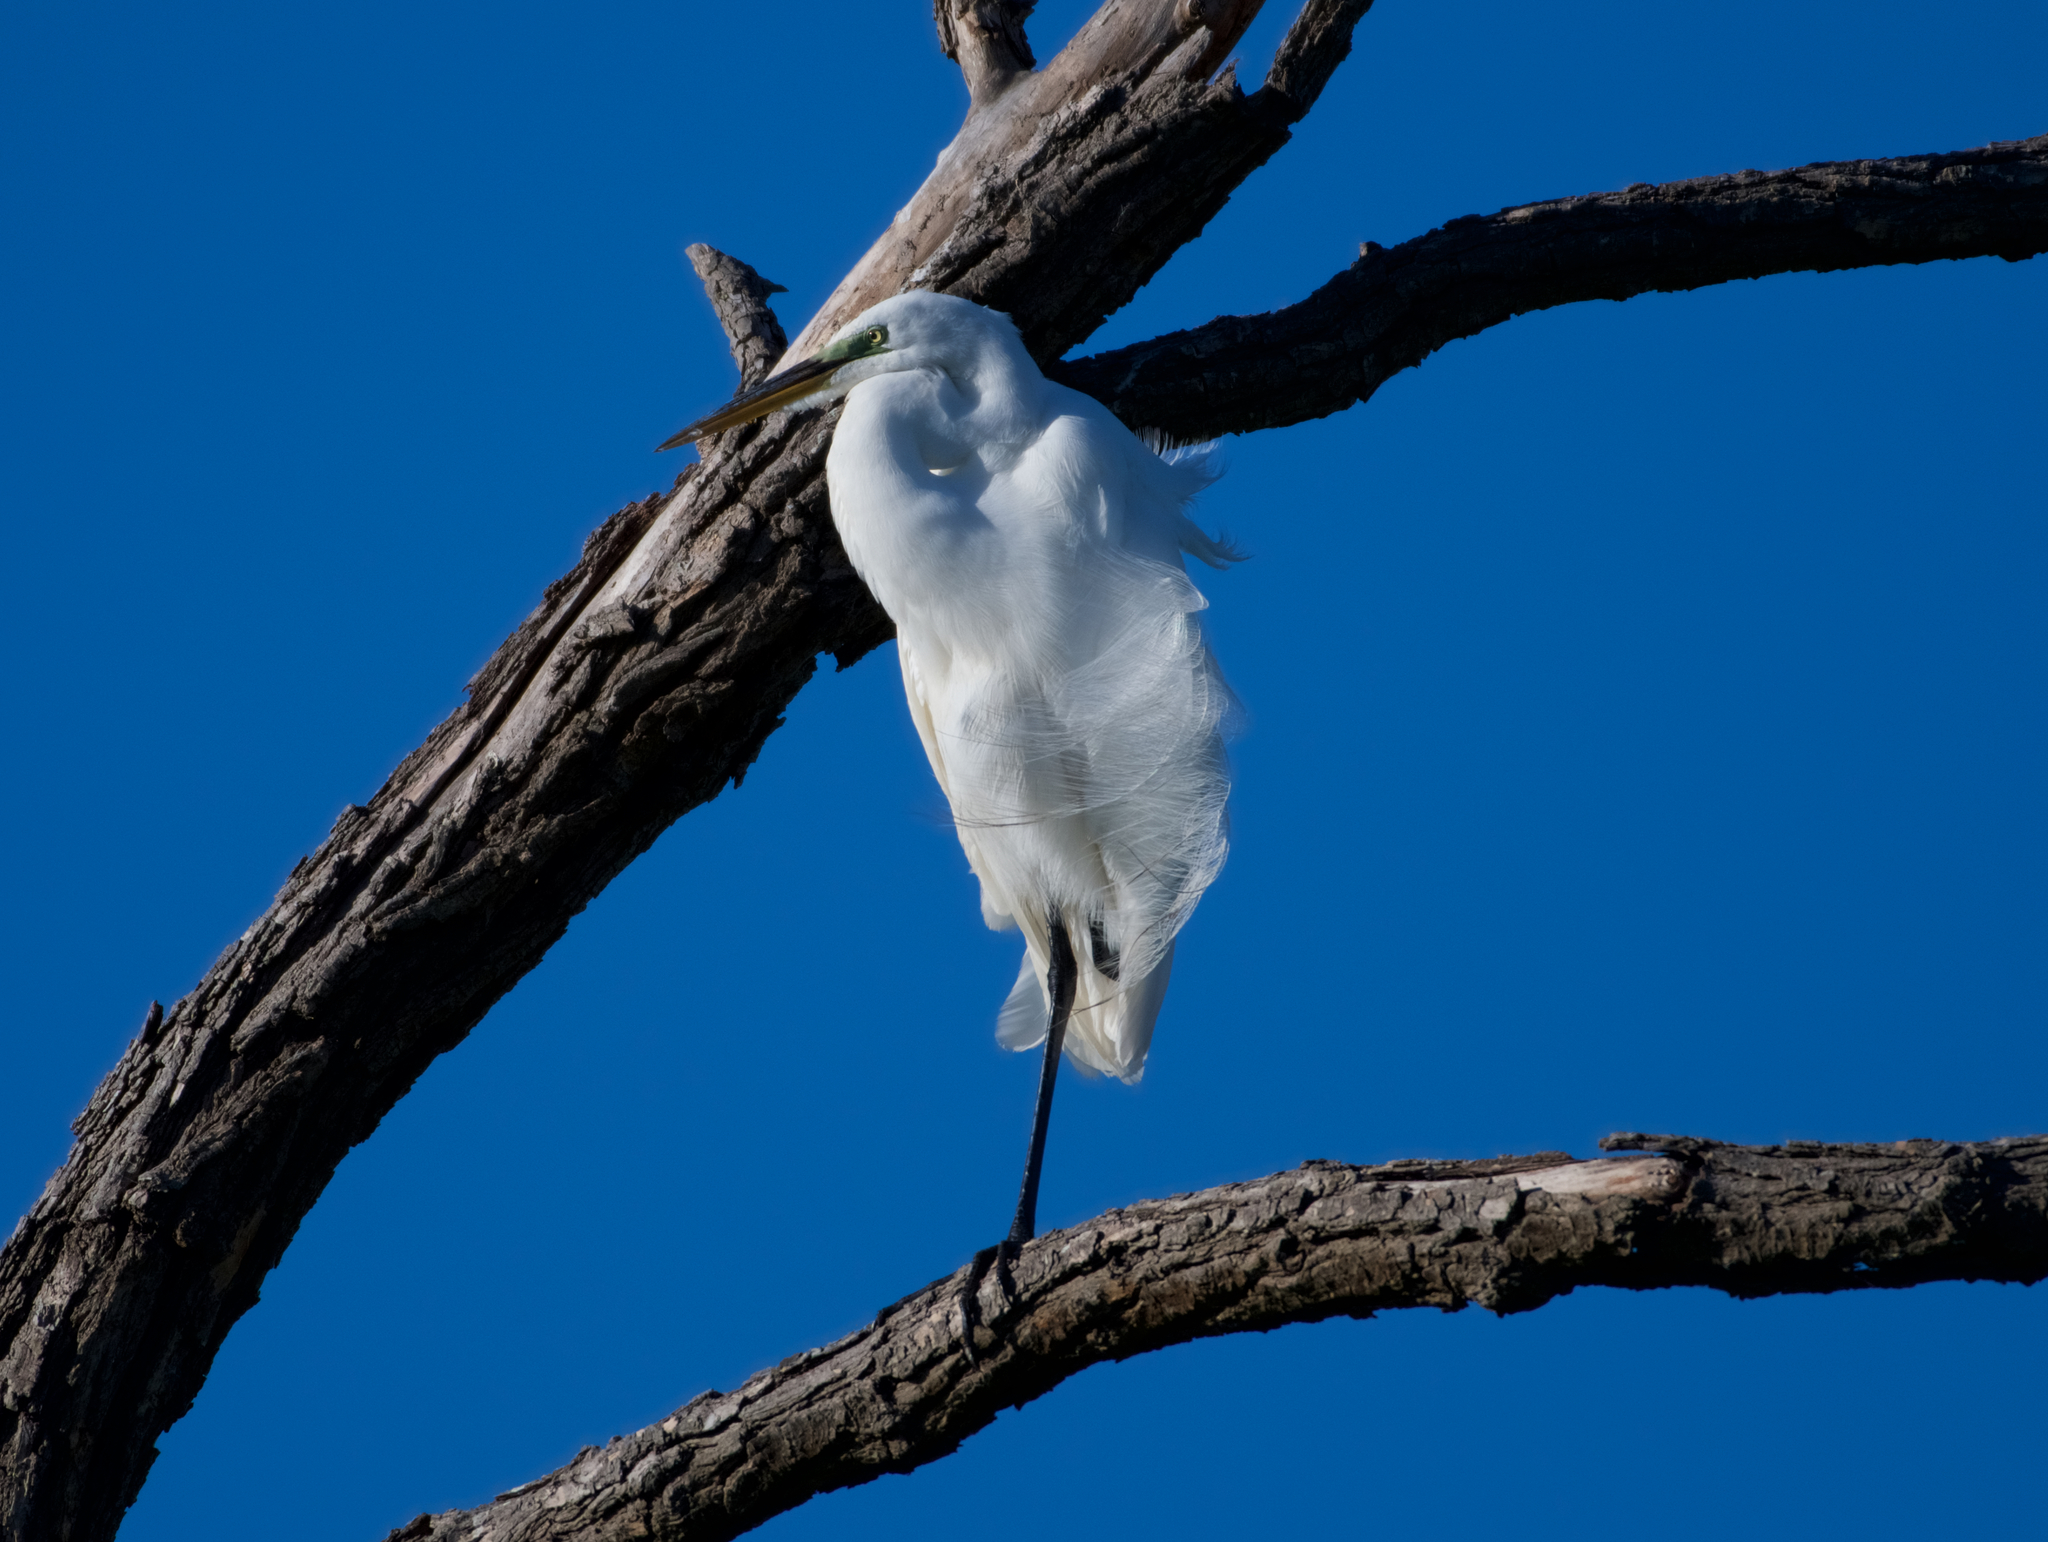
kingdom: Animalia
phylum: Chordata
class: Aves
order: Pelecaniformes
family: Ardeidae
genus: Ardea
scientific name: Ardea alba
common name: Great egret
